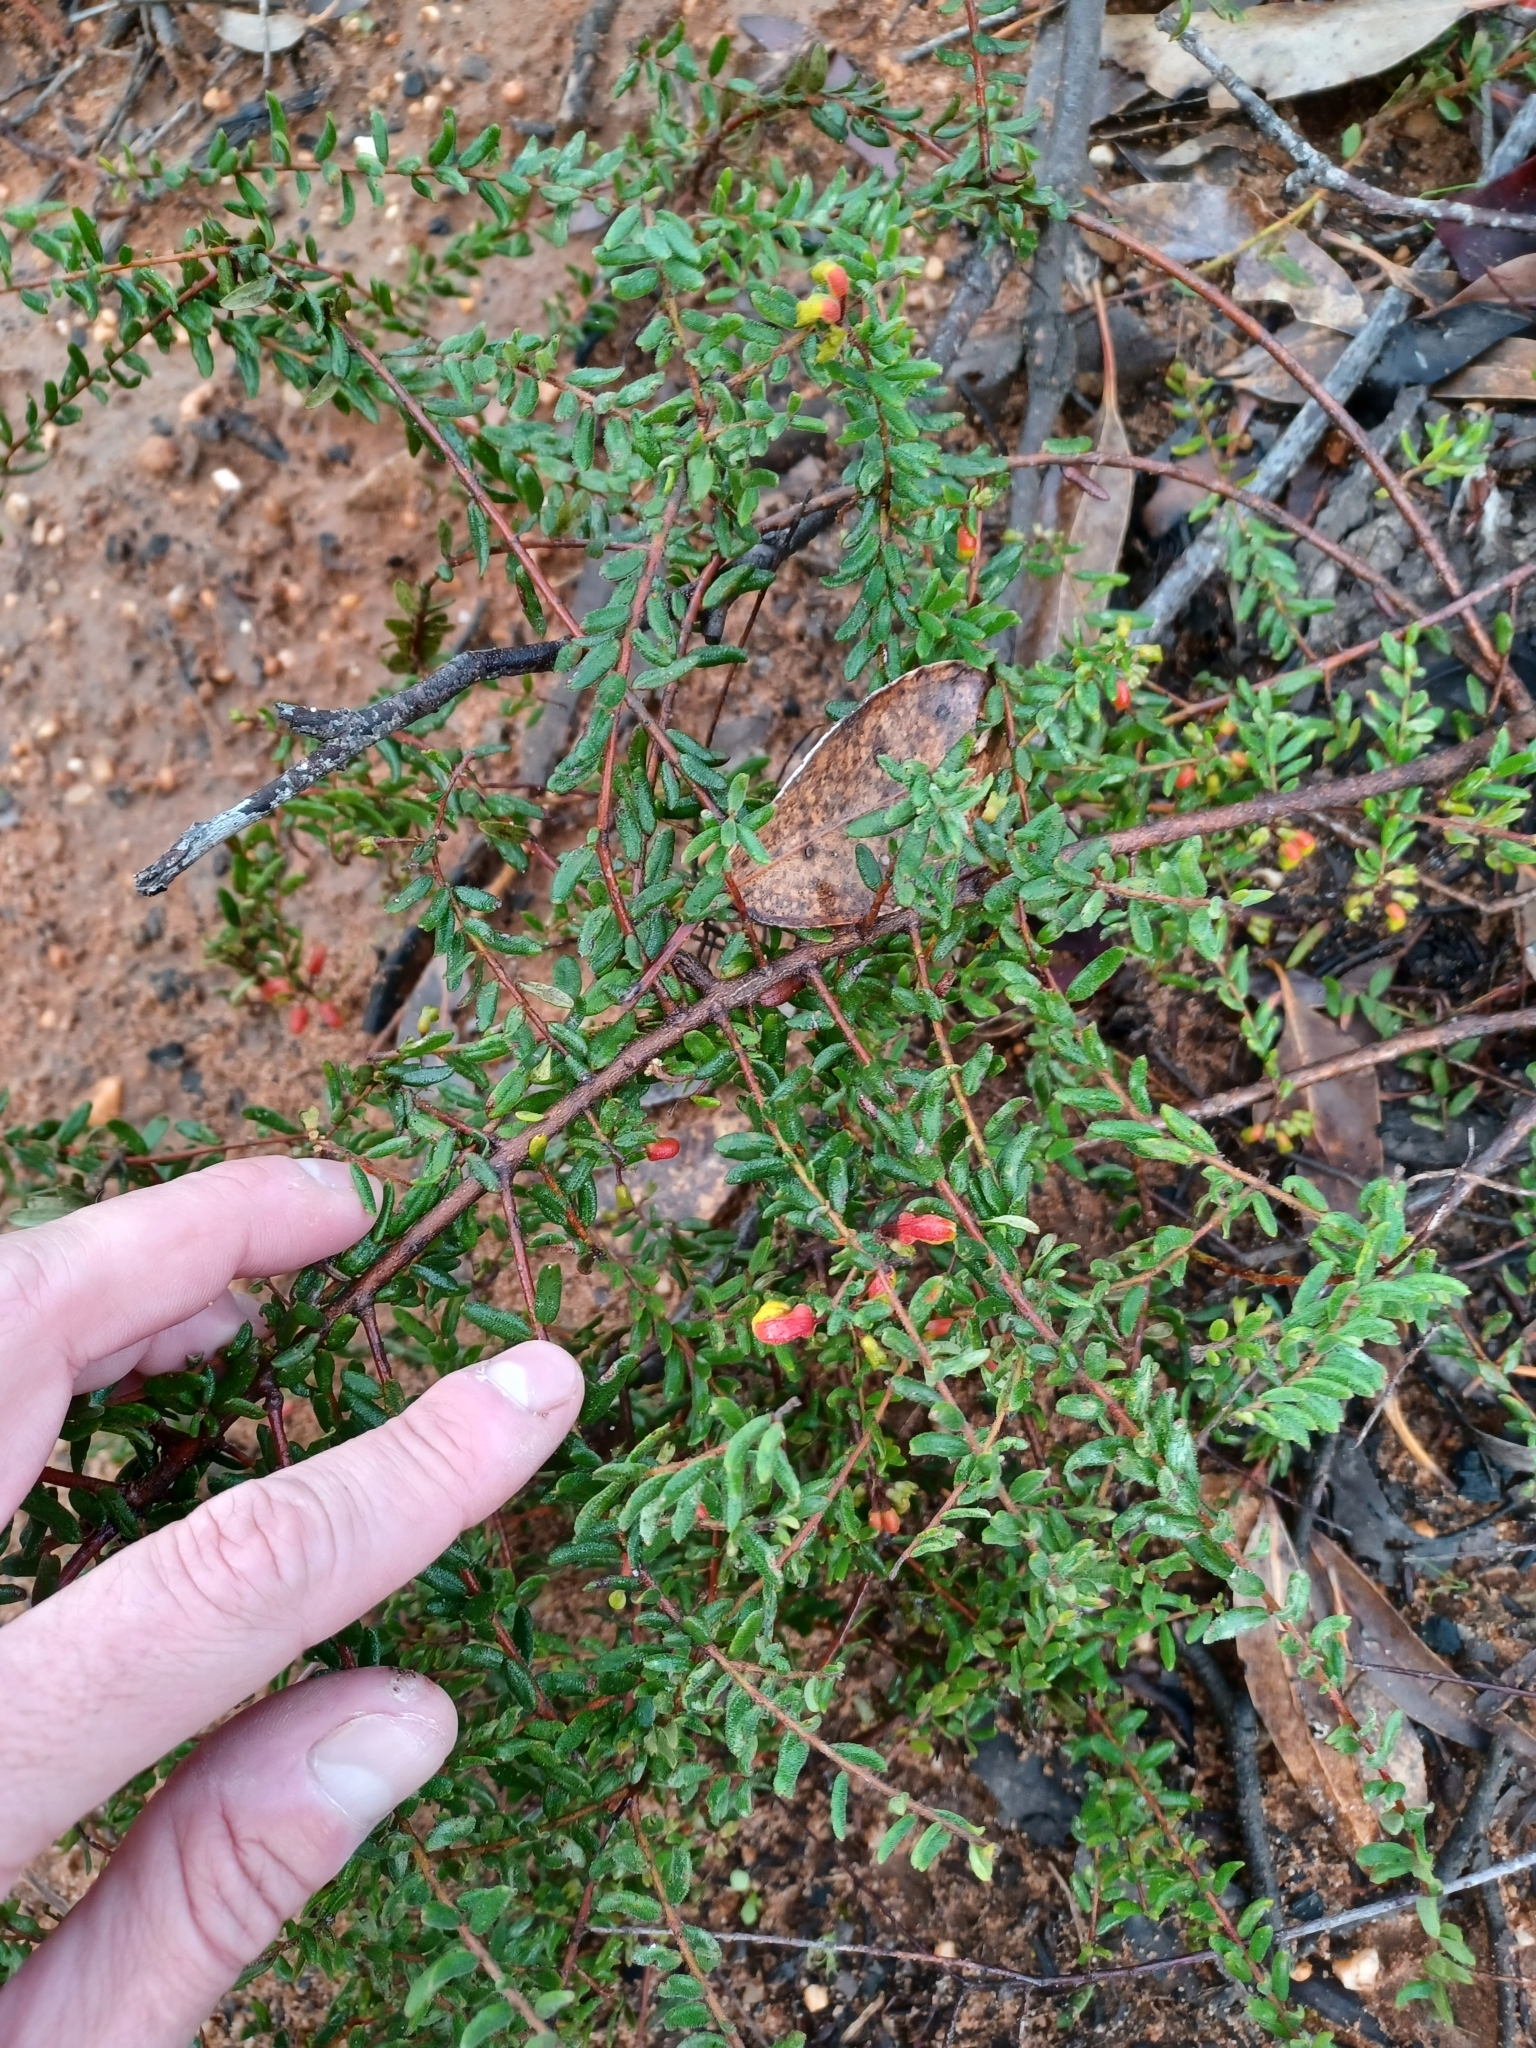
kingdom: Plantae
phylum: Tracheophyta
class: Magnoliopsida
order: Proteales
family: Proteaceae
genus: Grevillea
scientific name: Grevillea alpina
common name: Catclaws grevillea
